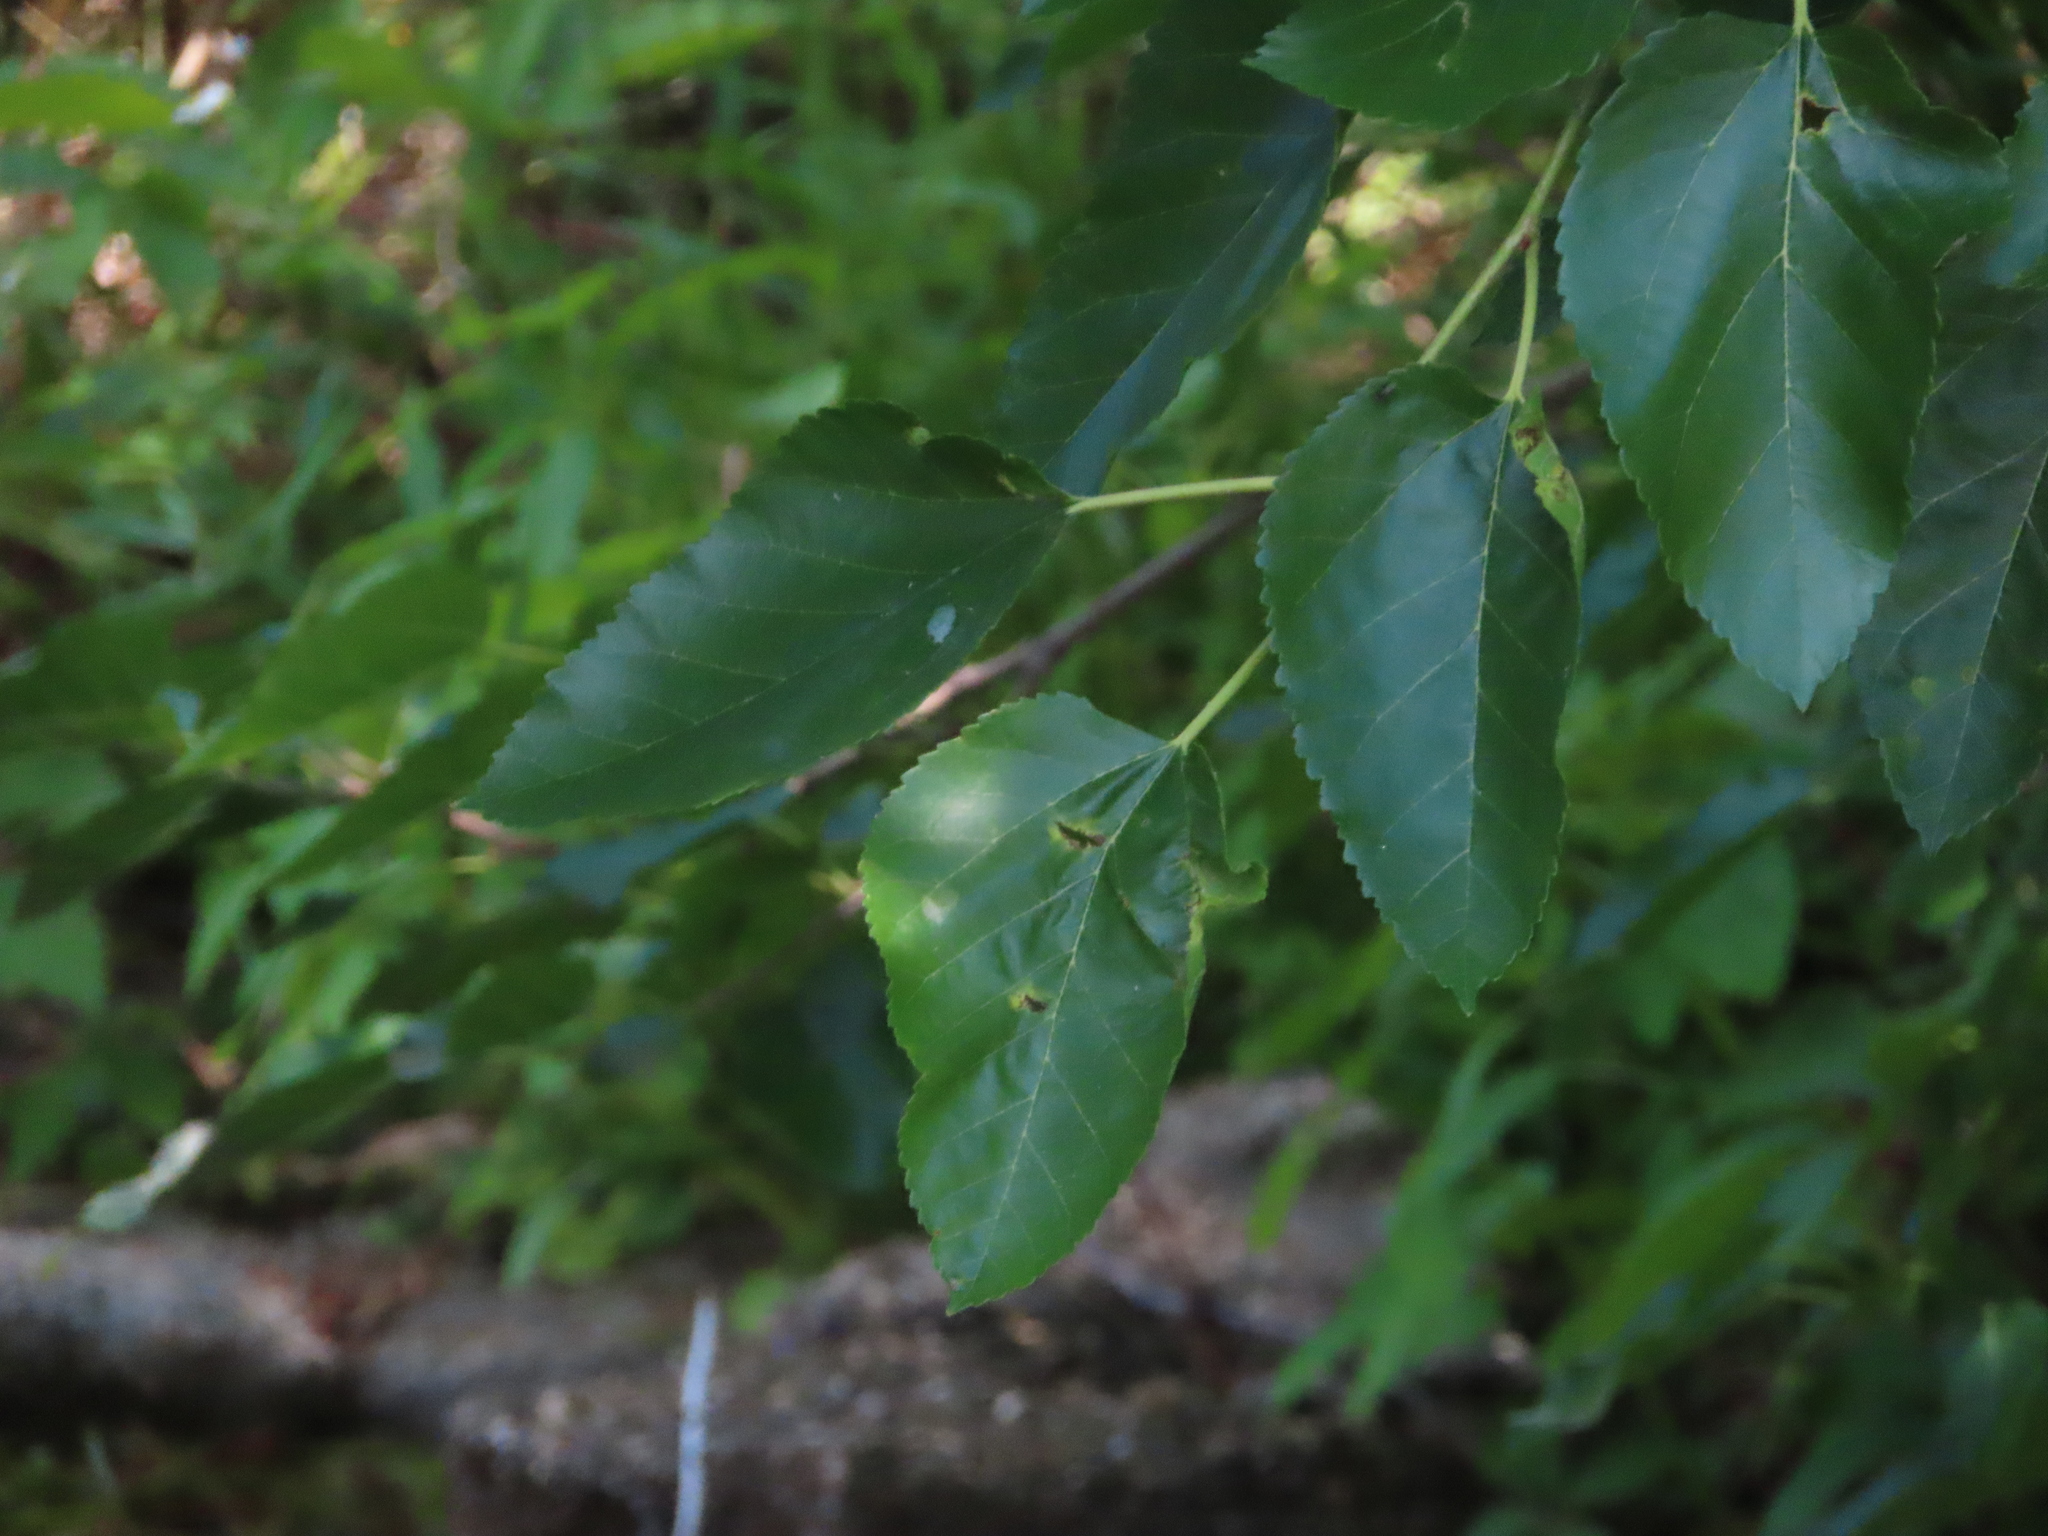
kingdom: Plantae
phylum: Tracheophyta
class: Magnoliopsida
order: Rosales
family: Moraceae
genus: Morus
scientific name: Morus alba
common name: White mulberry
